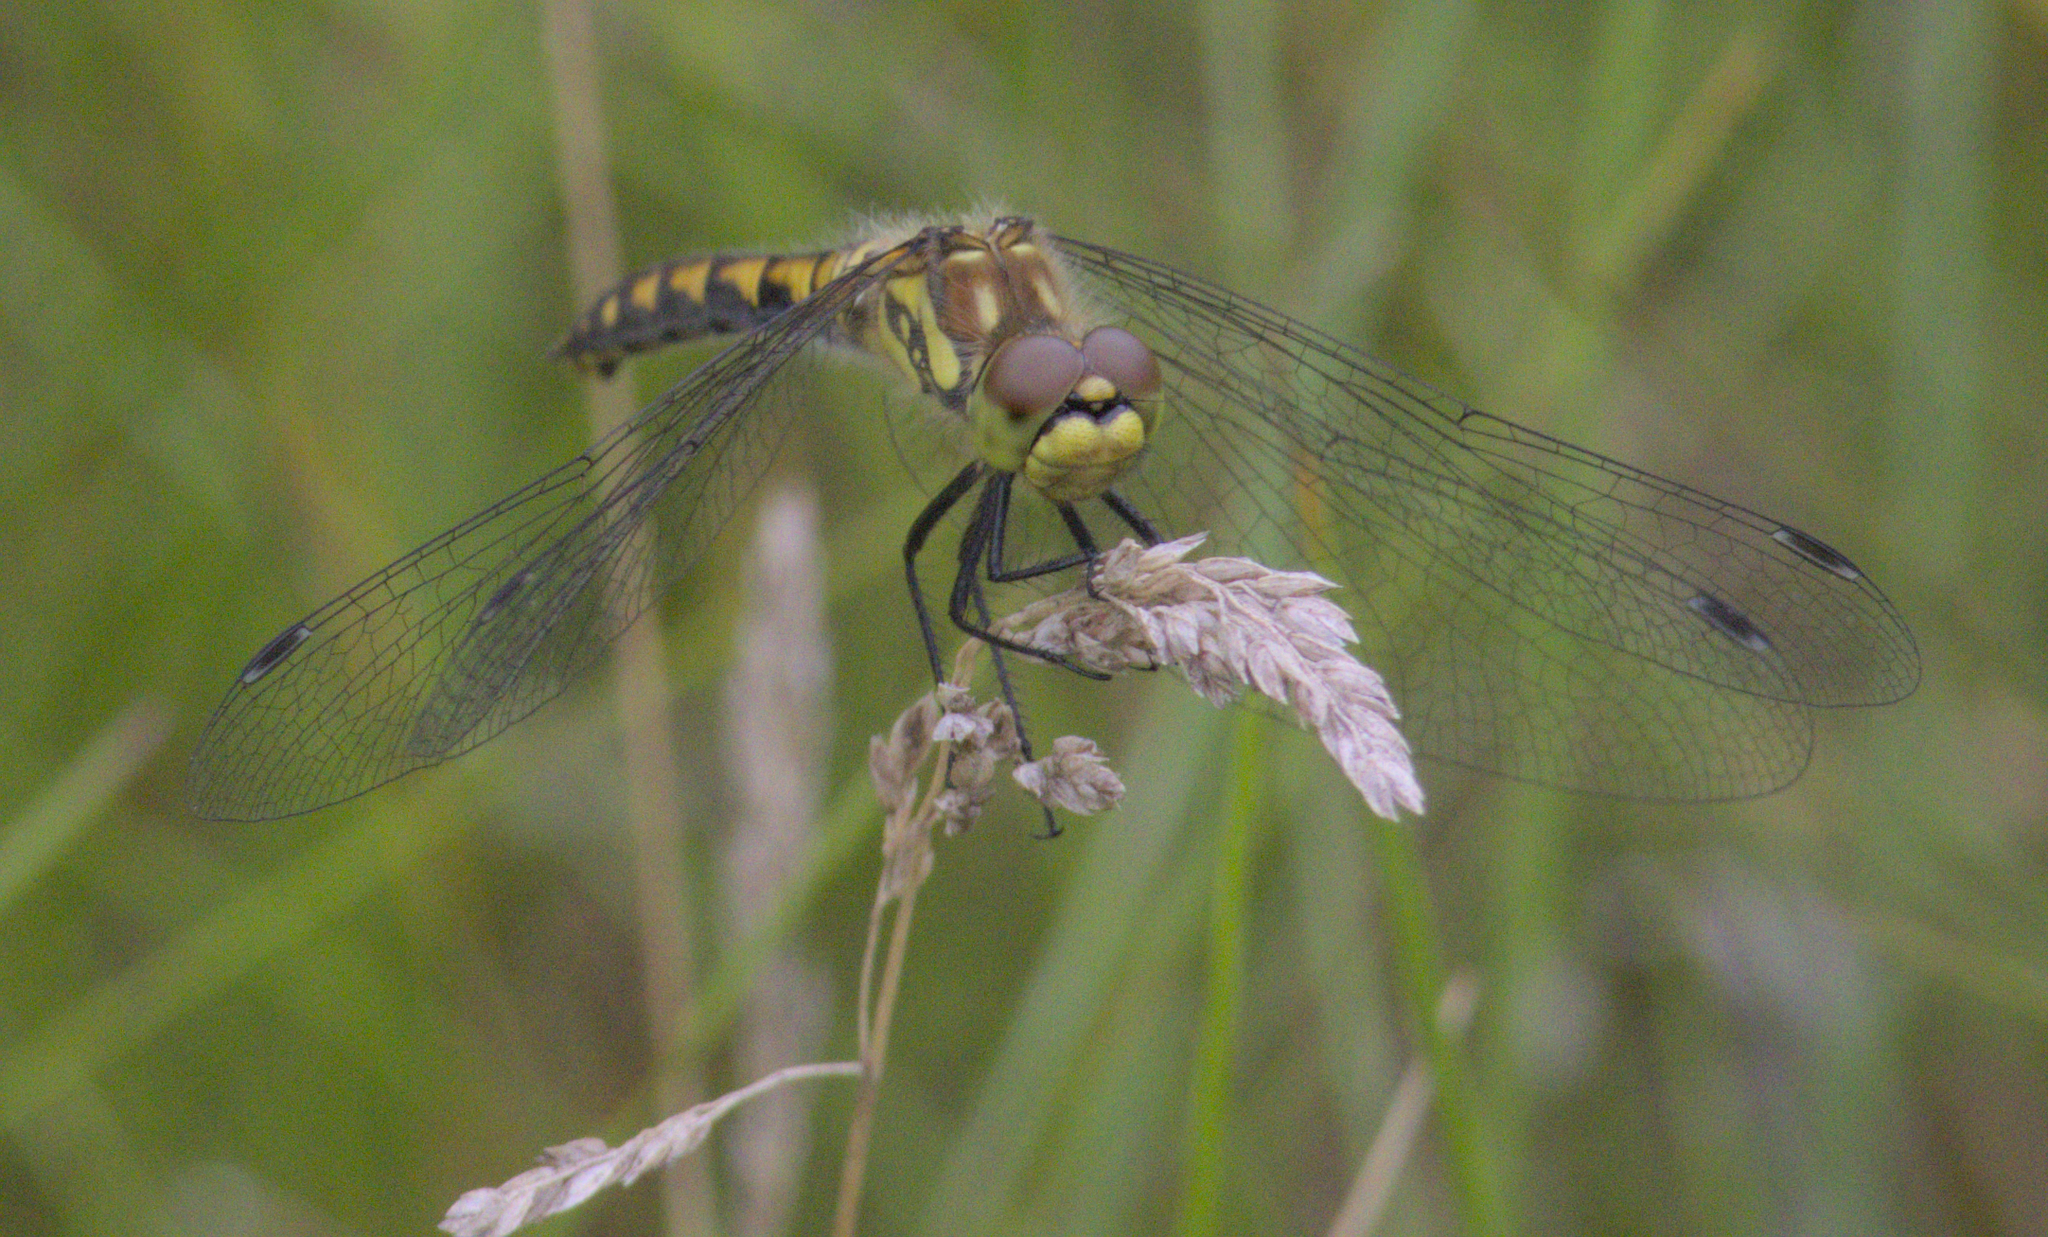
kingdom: Animalia
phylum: Arthropoda
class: Insecta
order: Odonata
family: Libellulidae
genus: Sympetrum
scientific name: Sympetrum danae
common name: Black darter
